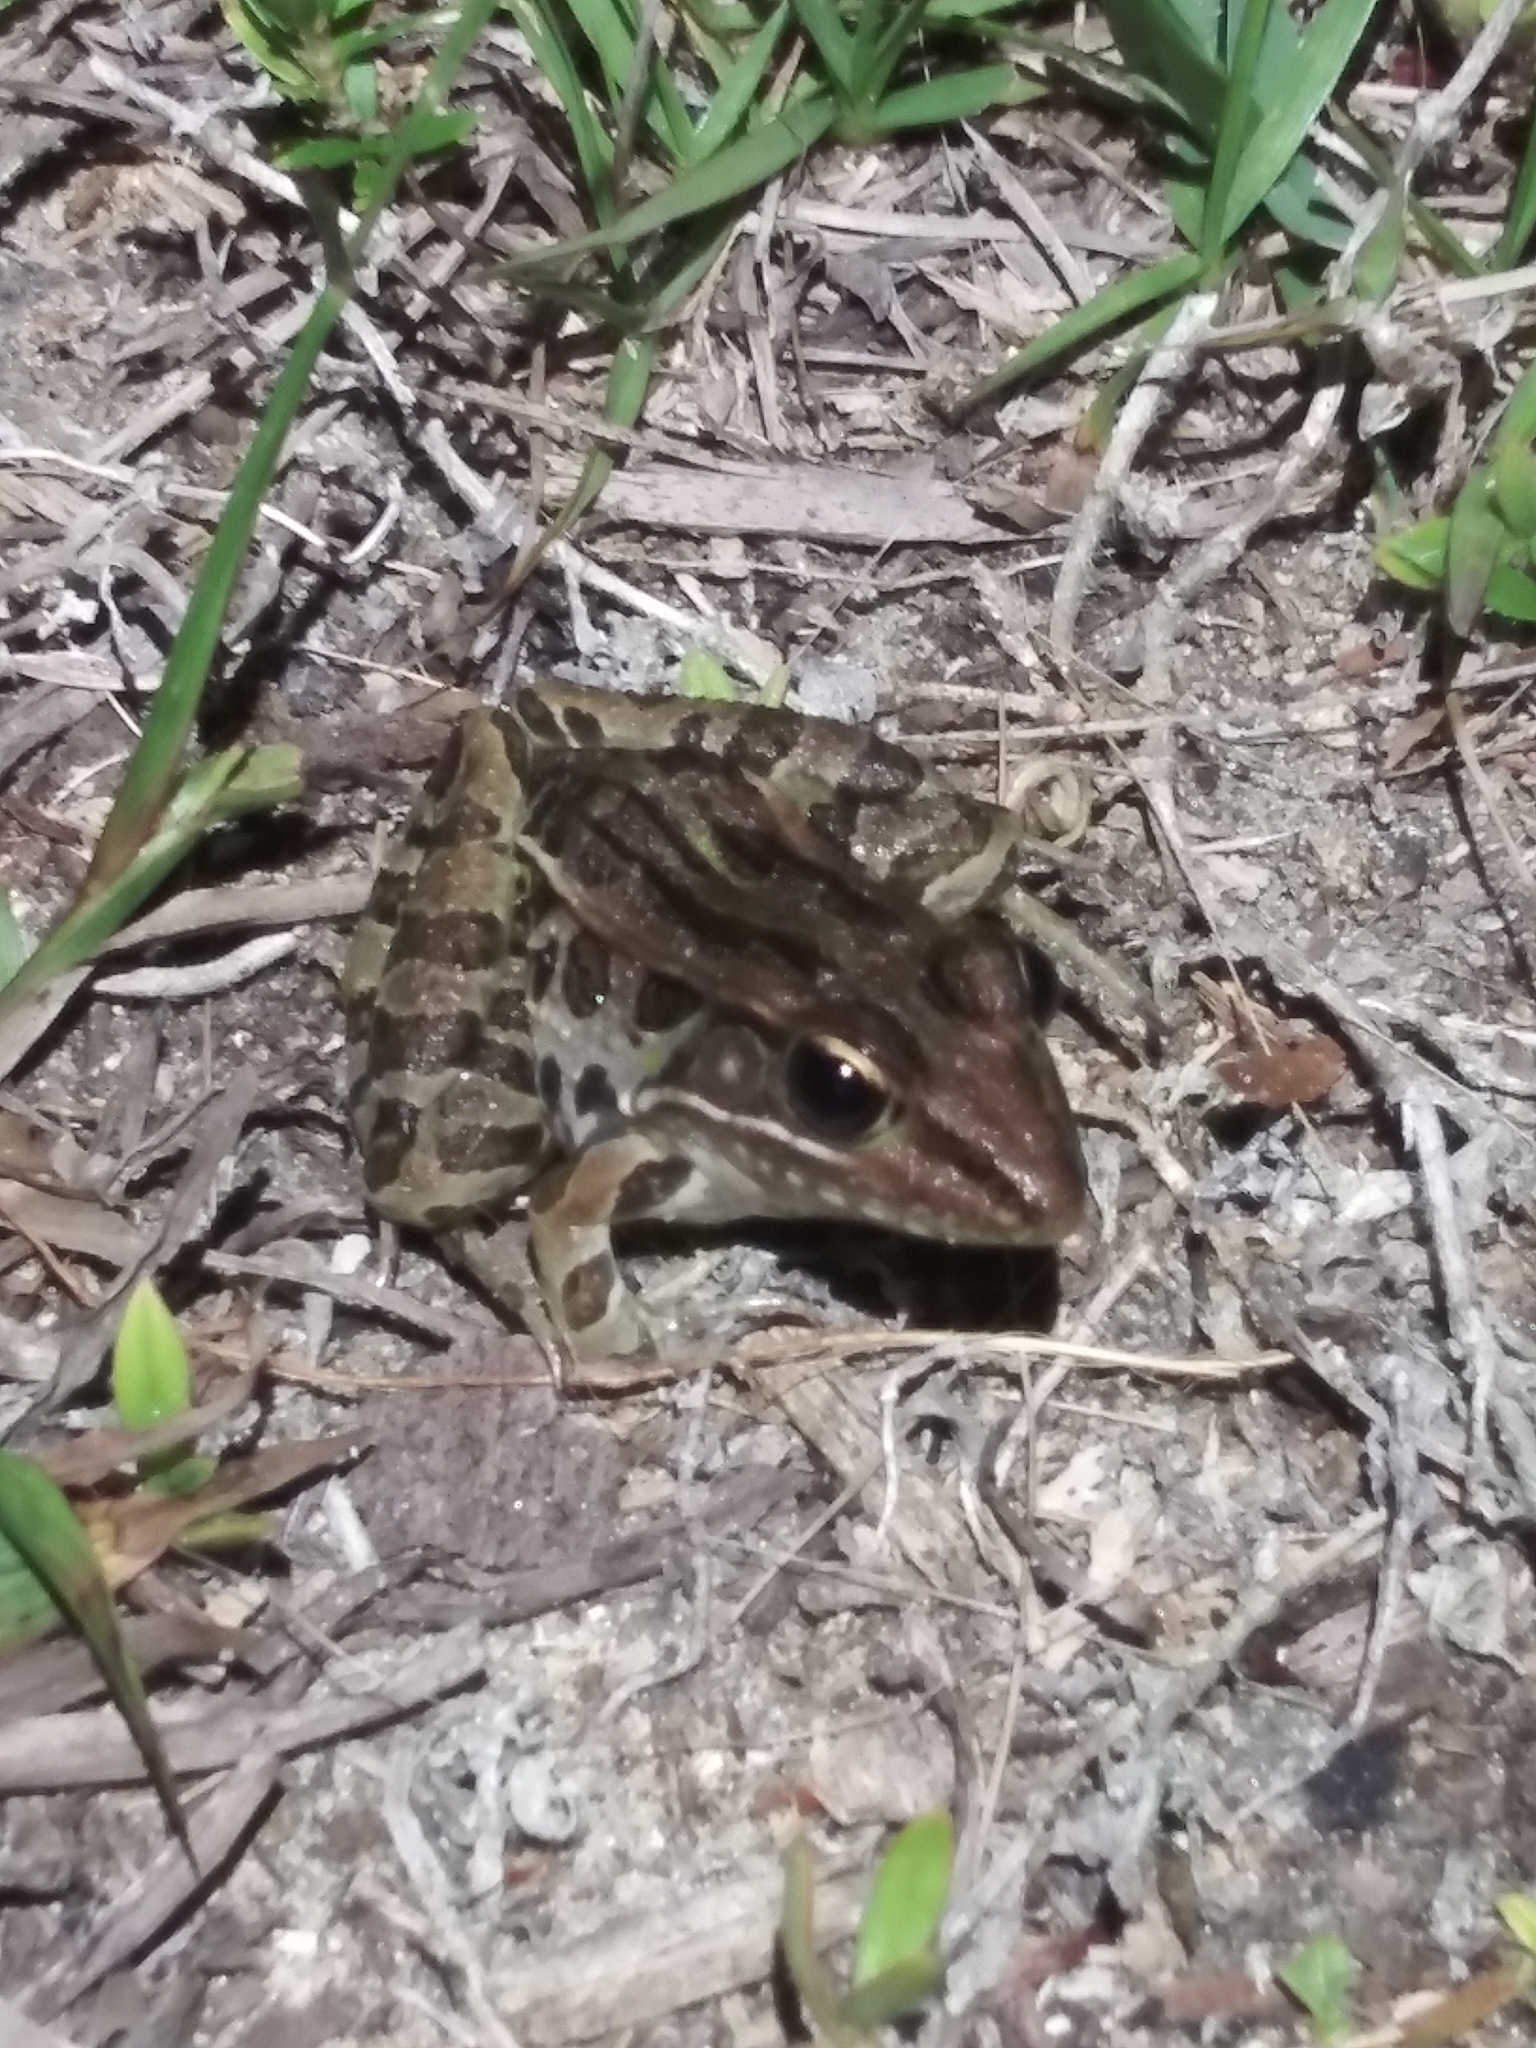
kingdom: Animalia
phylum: Chordata
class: Amphibia
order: Anura
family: Ranidae
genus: Lithobates
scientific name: Lithobates sphenocephalus
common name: Southern leopard frog
